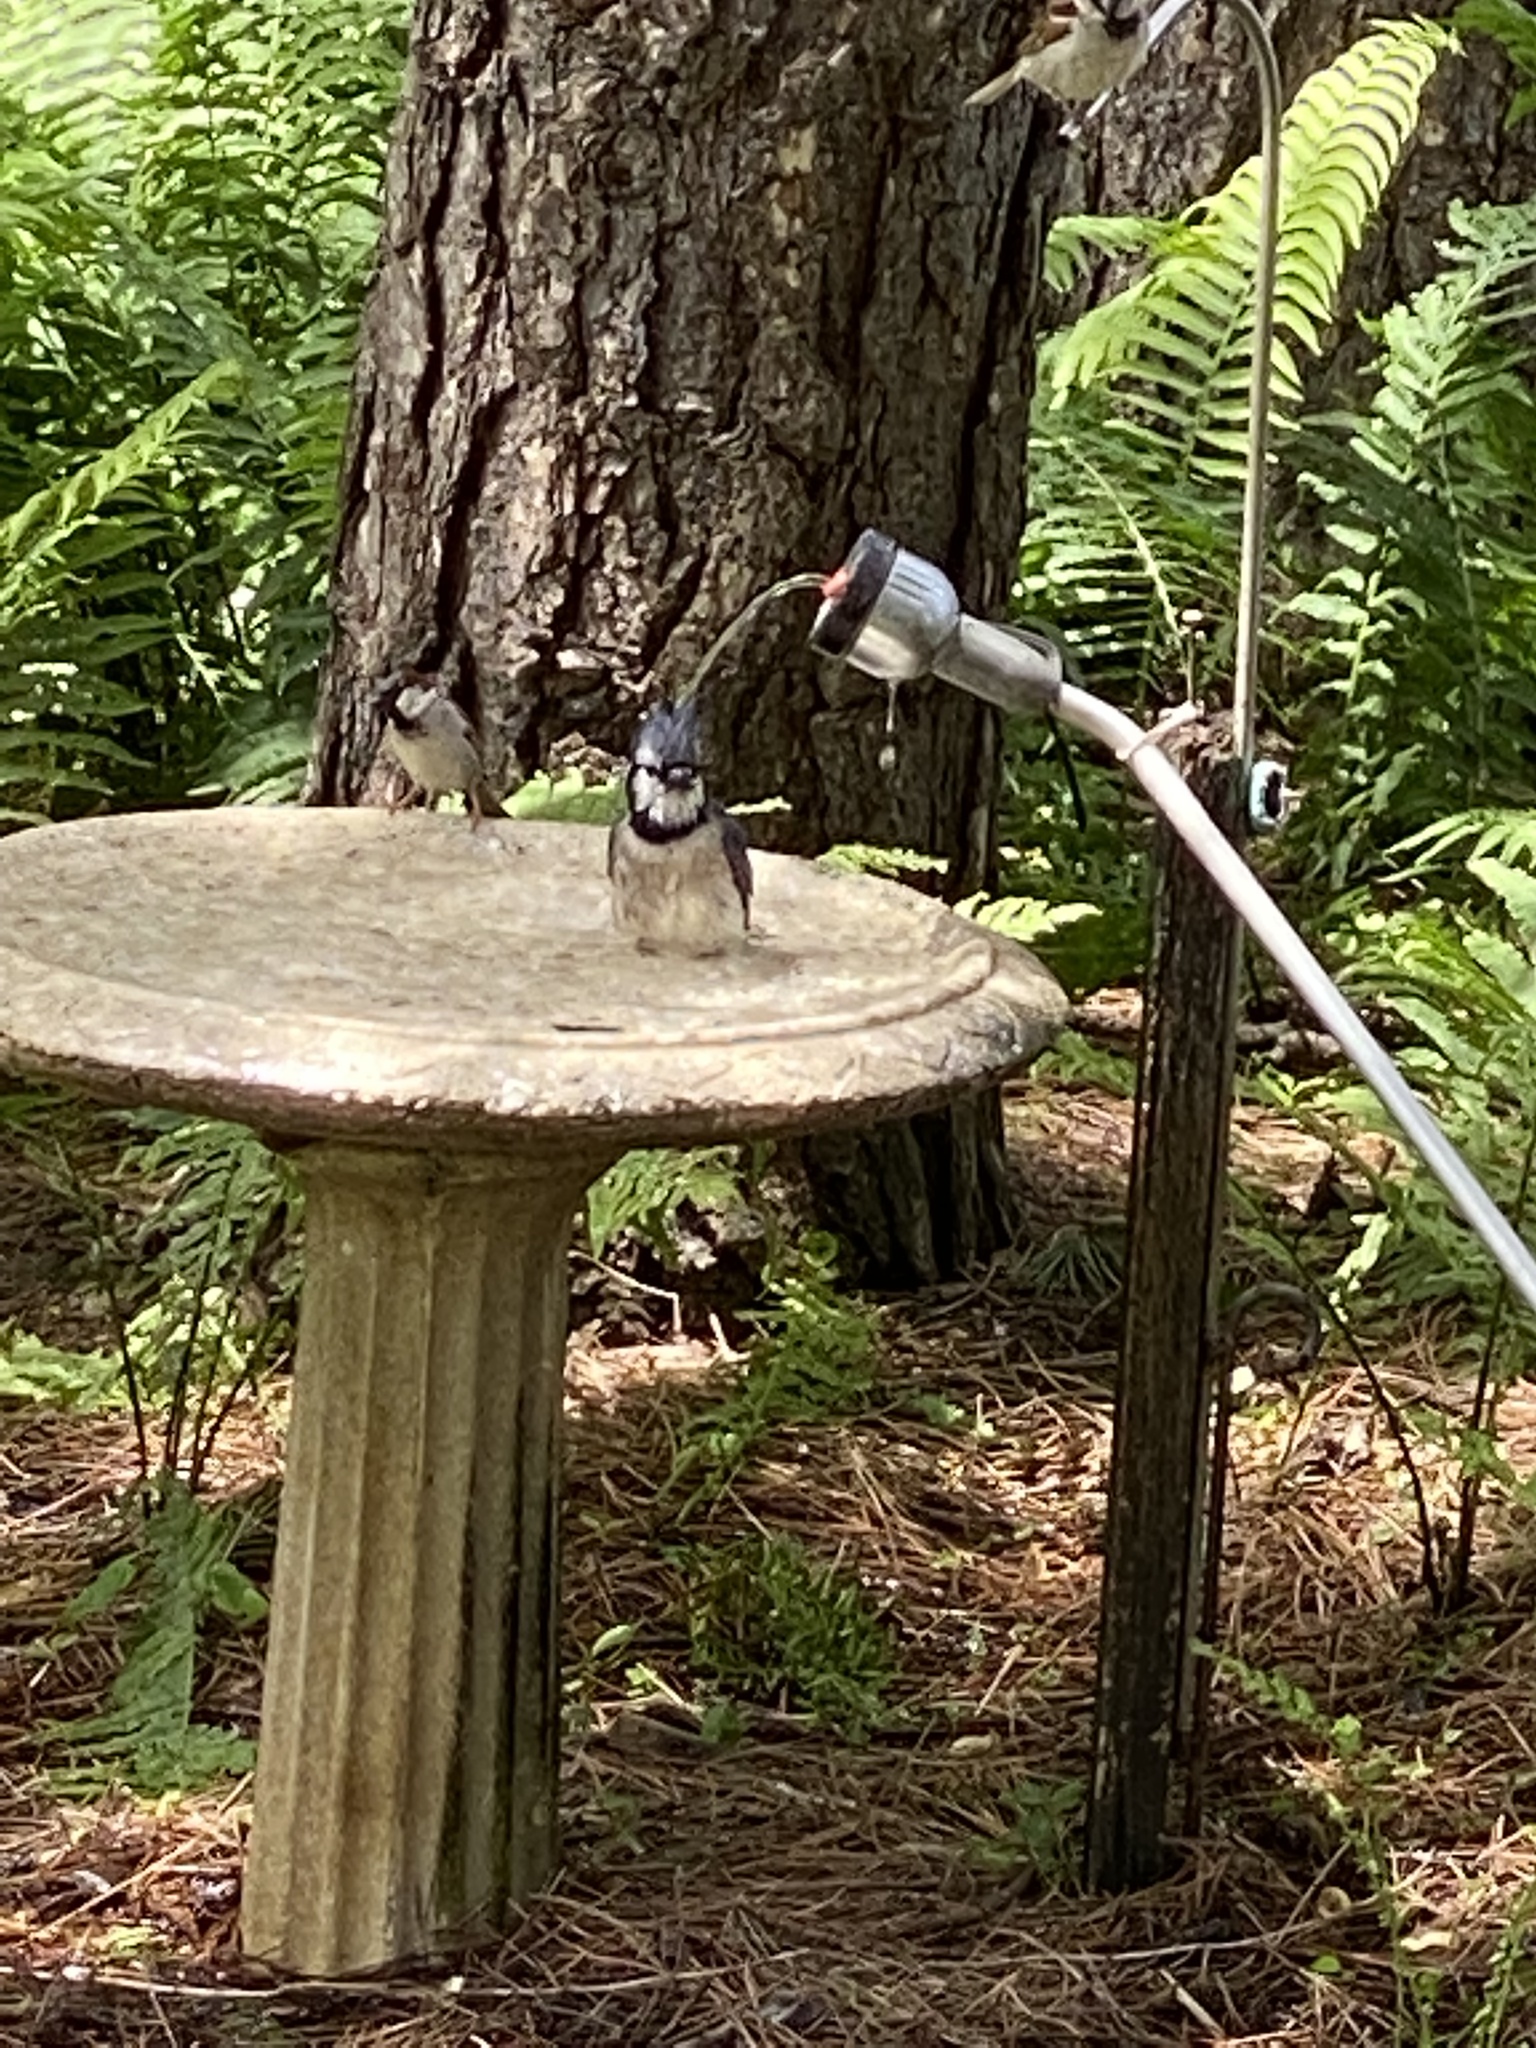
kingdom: Animalia
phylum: Chordata
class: Aves
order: Passeriformes
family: Corvidae
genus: Cyanocitta
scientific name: Cyanocitta cristata
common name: Blue jay
